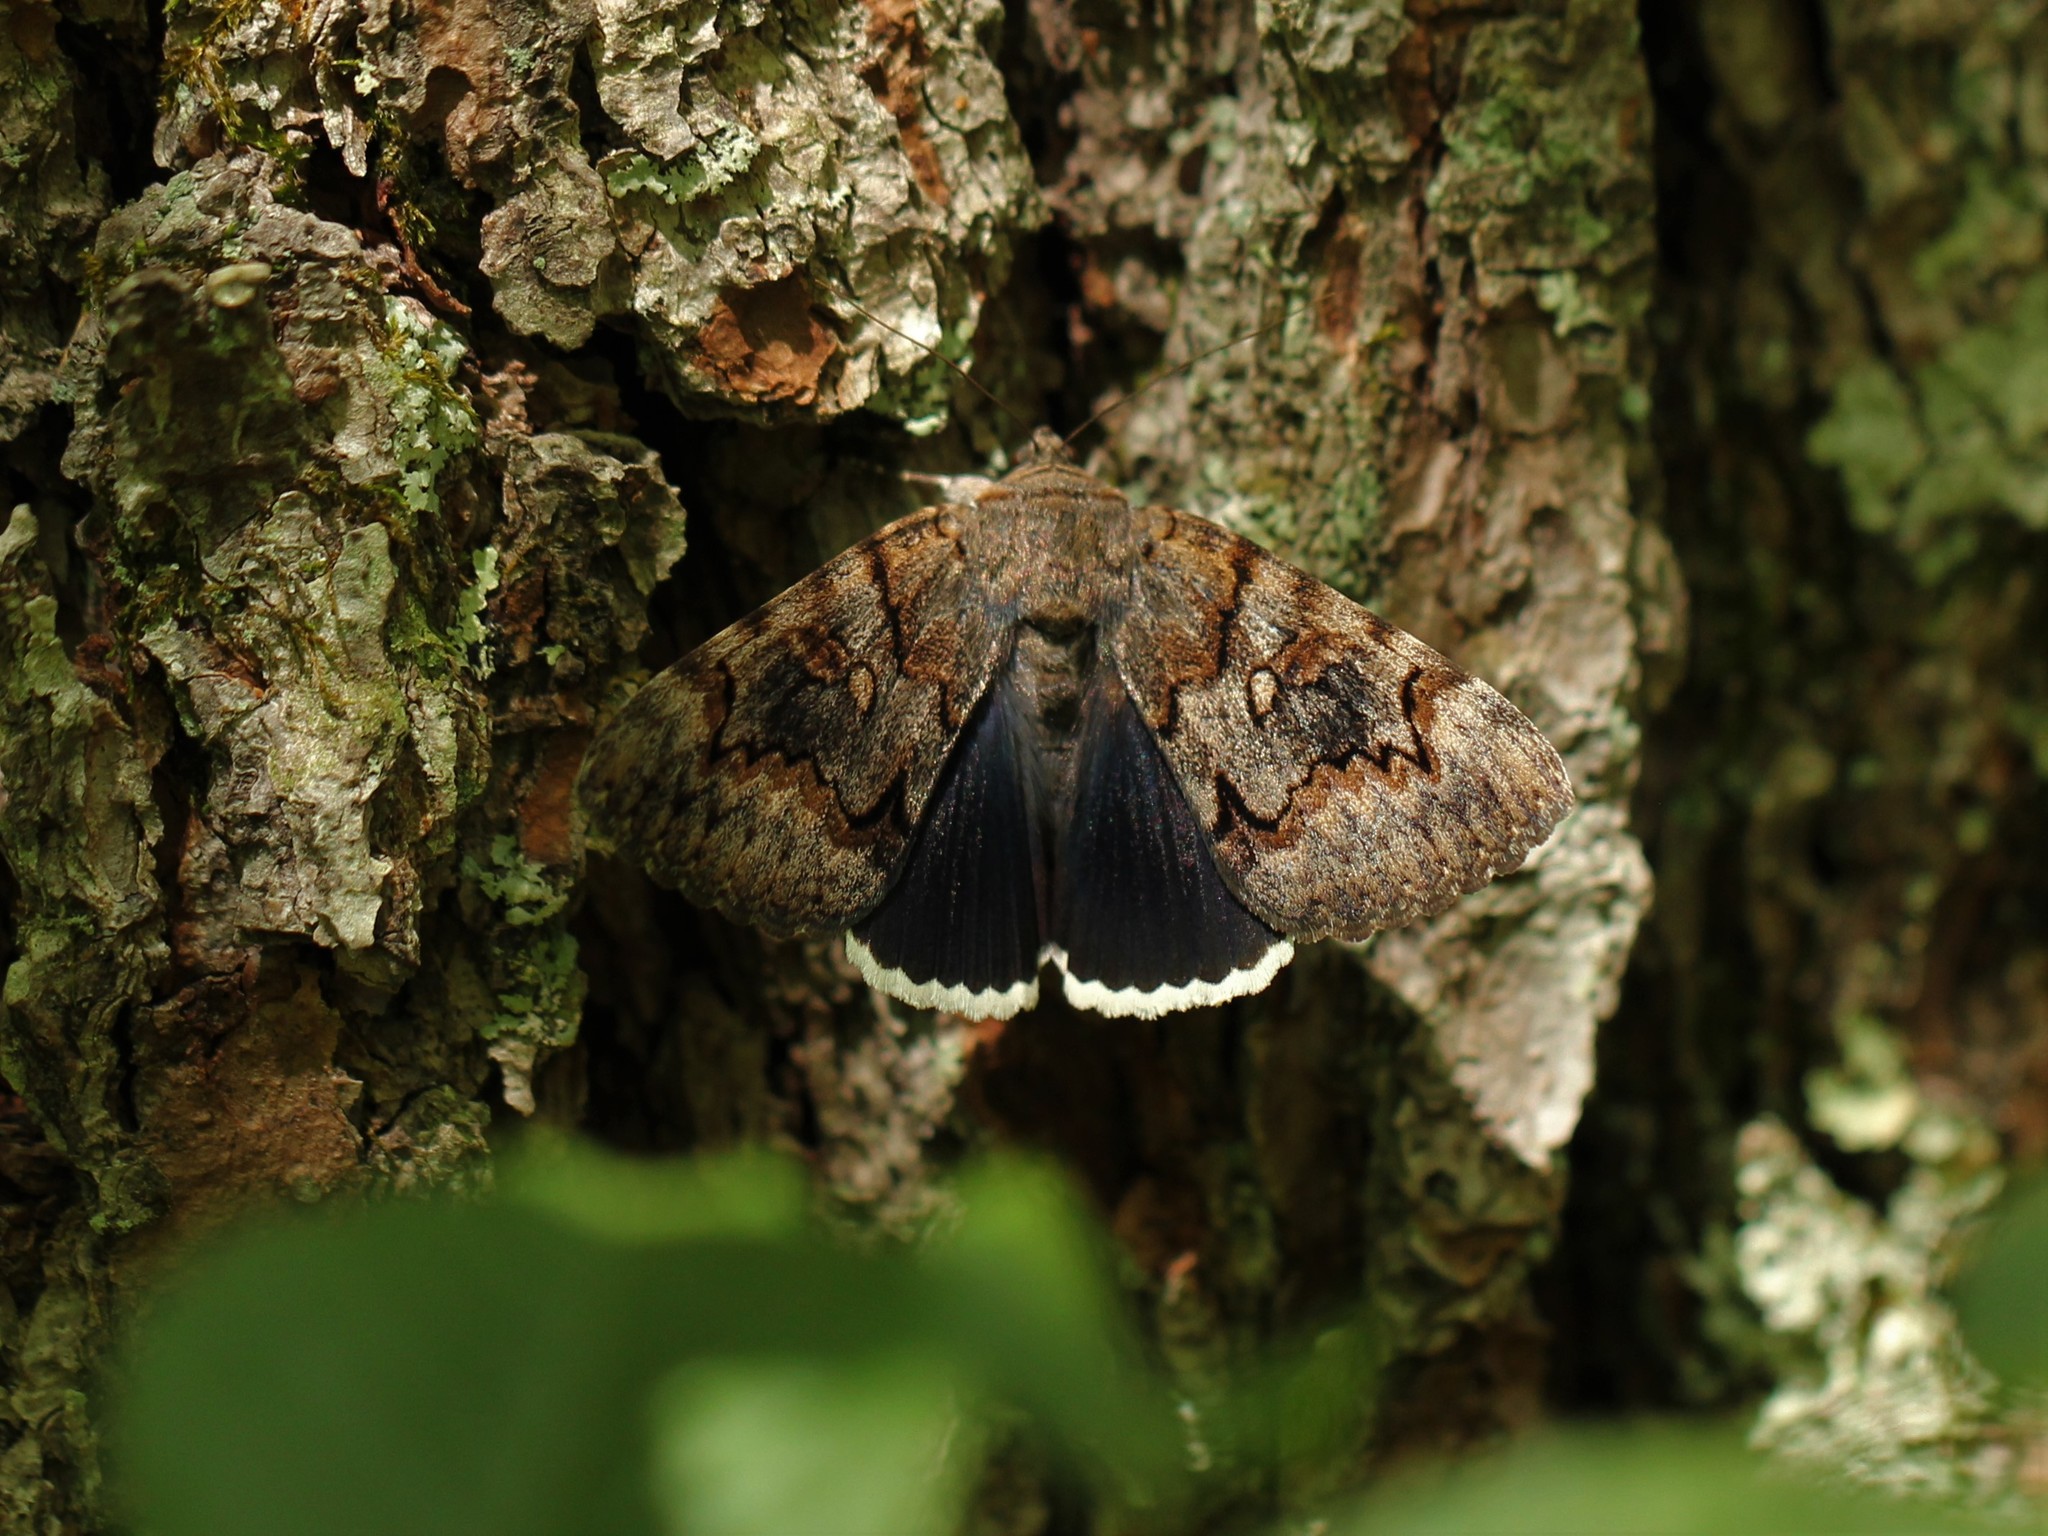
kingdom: Animalia
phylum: Arthropoda
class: Insecta
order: Lepidoptera
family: Erebidae
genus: Catocala
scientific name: Catocala epione
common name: Epione underwing
